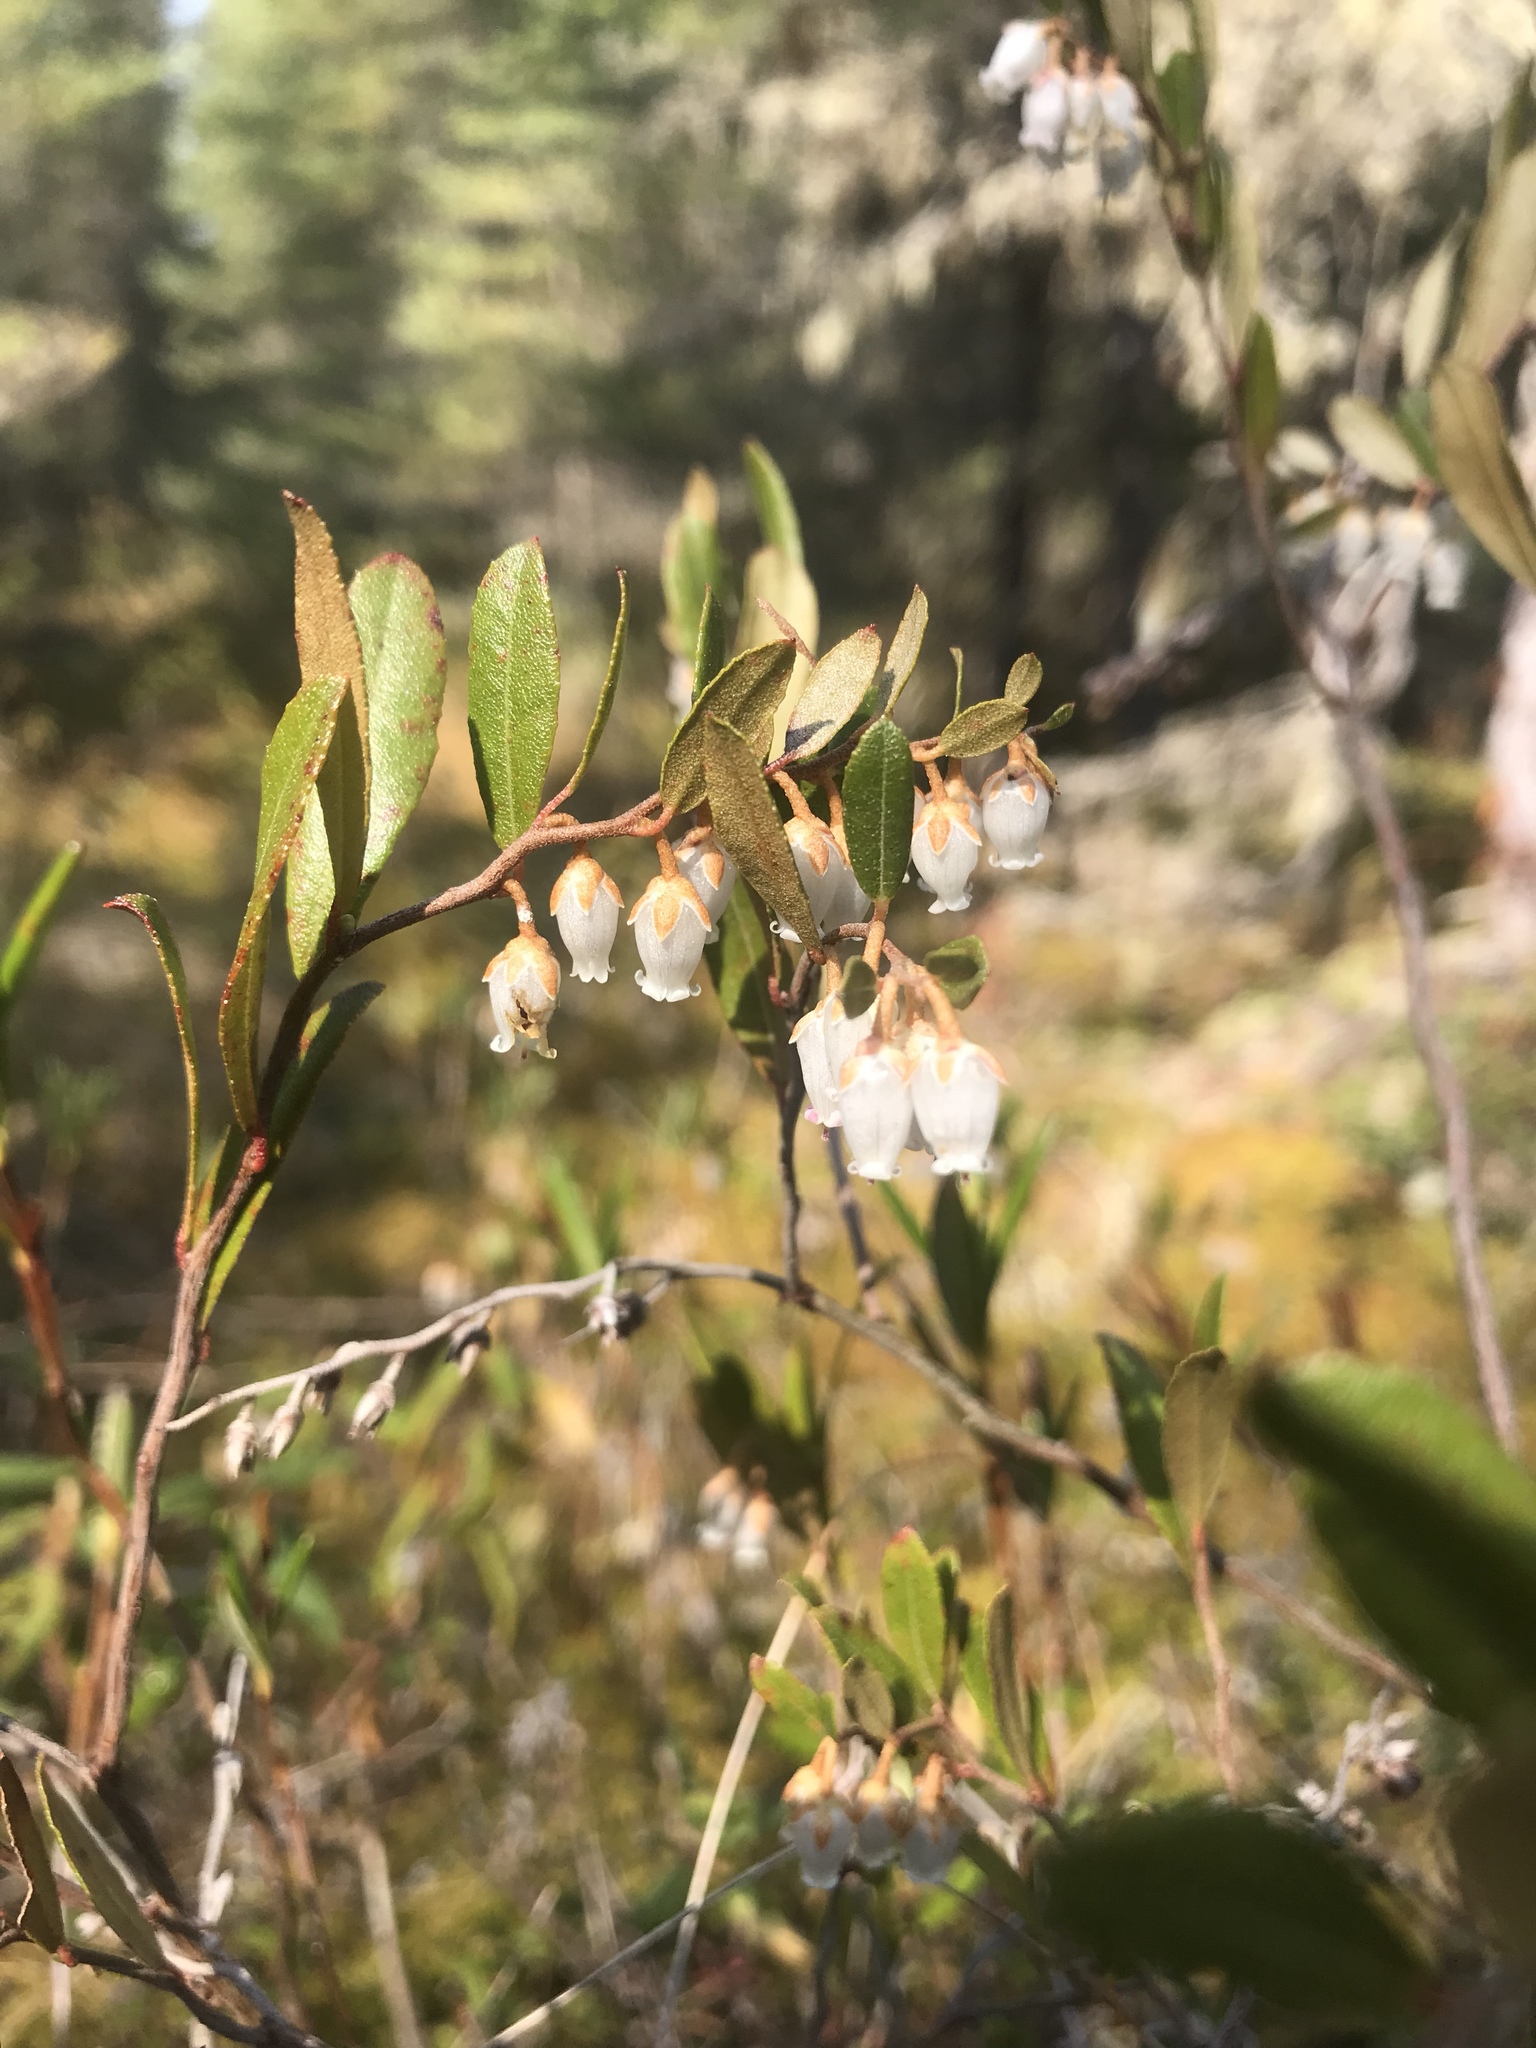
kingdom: Plantae
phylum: Tracheophyta
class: Magnoliopsida
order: Ericales
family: Ericaceae
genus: Chamaedaphne
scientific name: Chamaedaphne calyculata
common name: Leatherleaf
